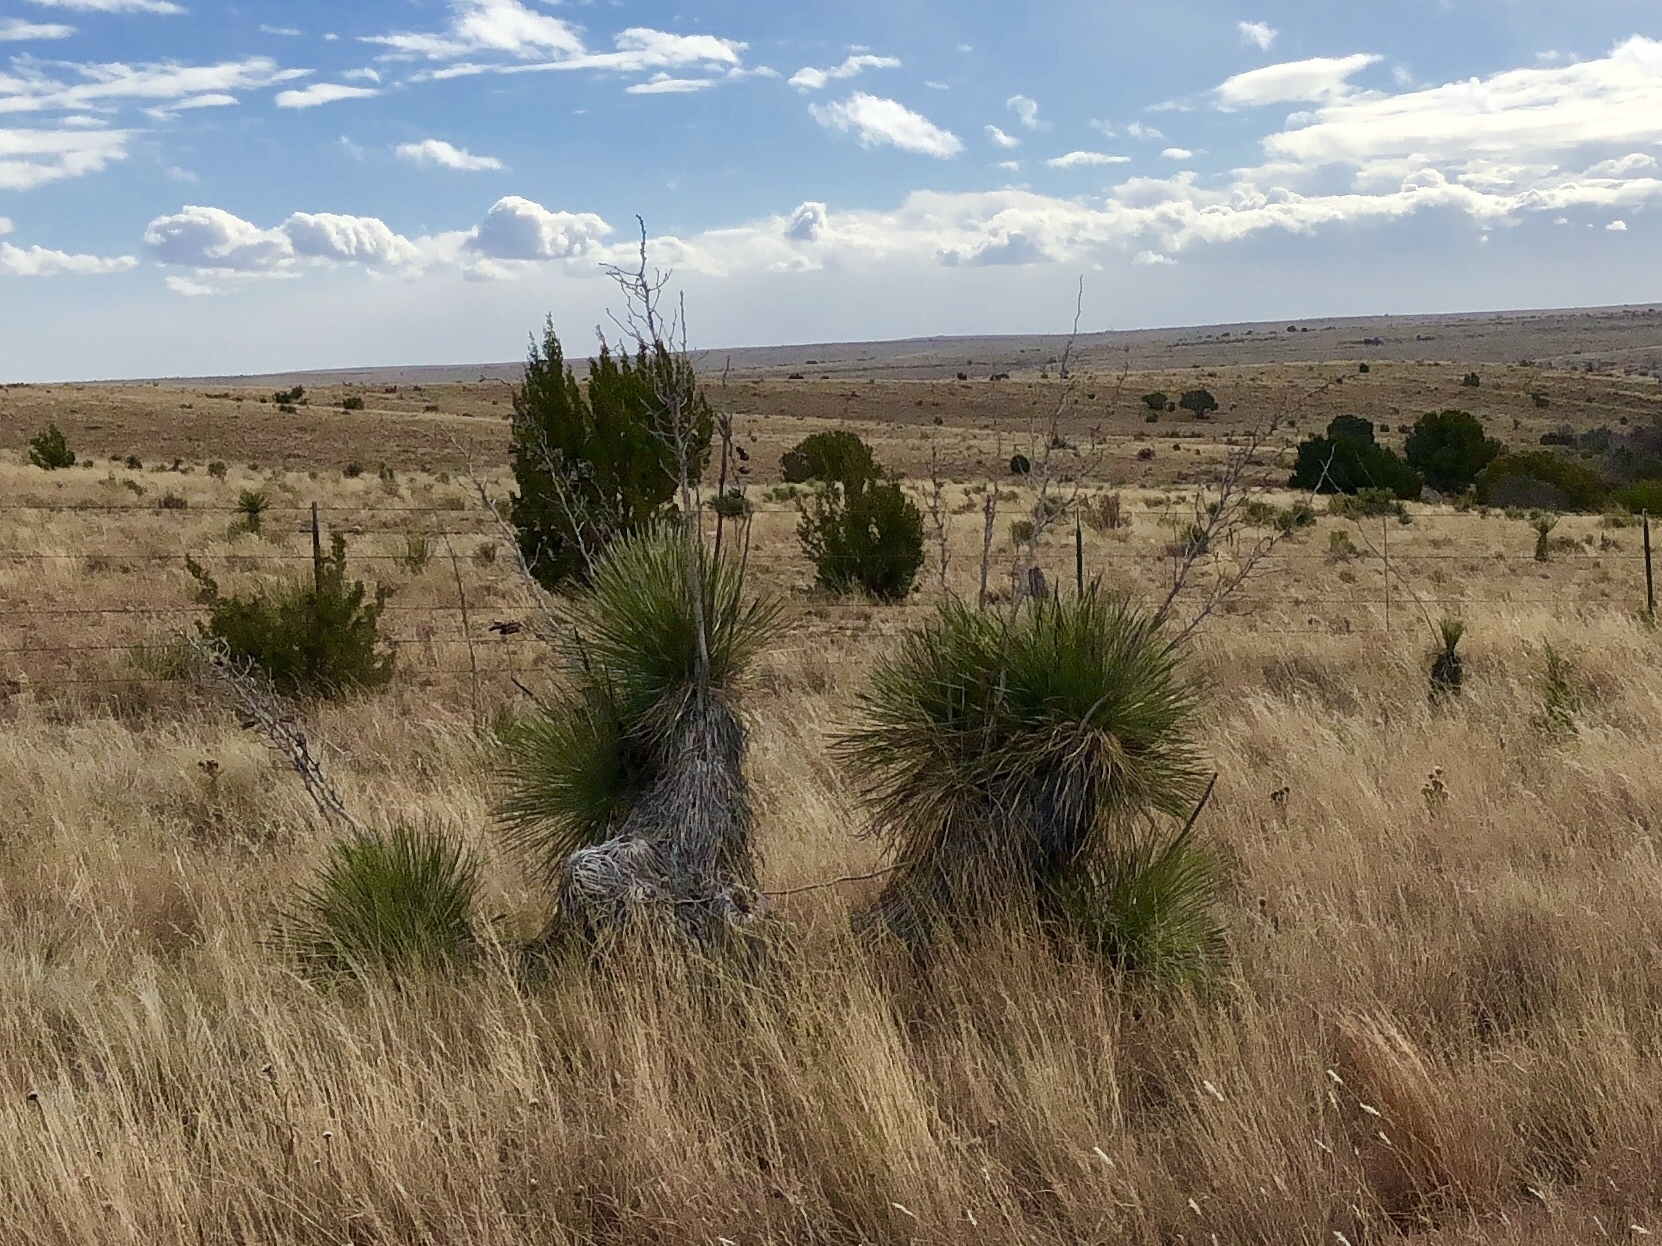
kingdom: Plantae
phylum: Tracheophyta
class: Liliopsida
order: Asparagales
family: Asparagaceae
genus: Yucca
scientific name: Yucca elata
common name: Palmella
